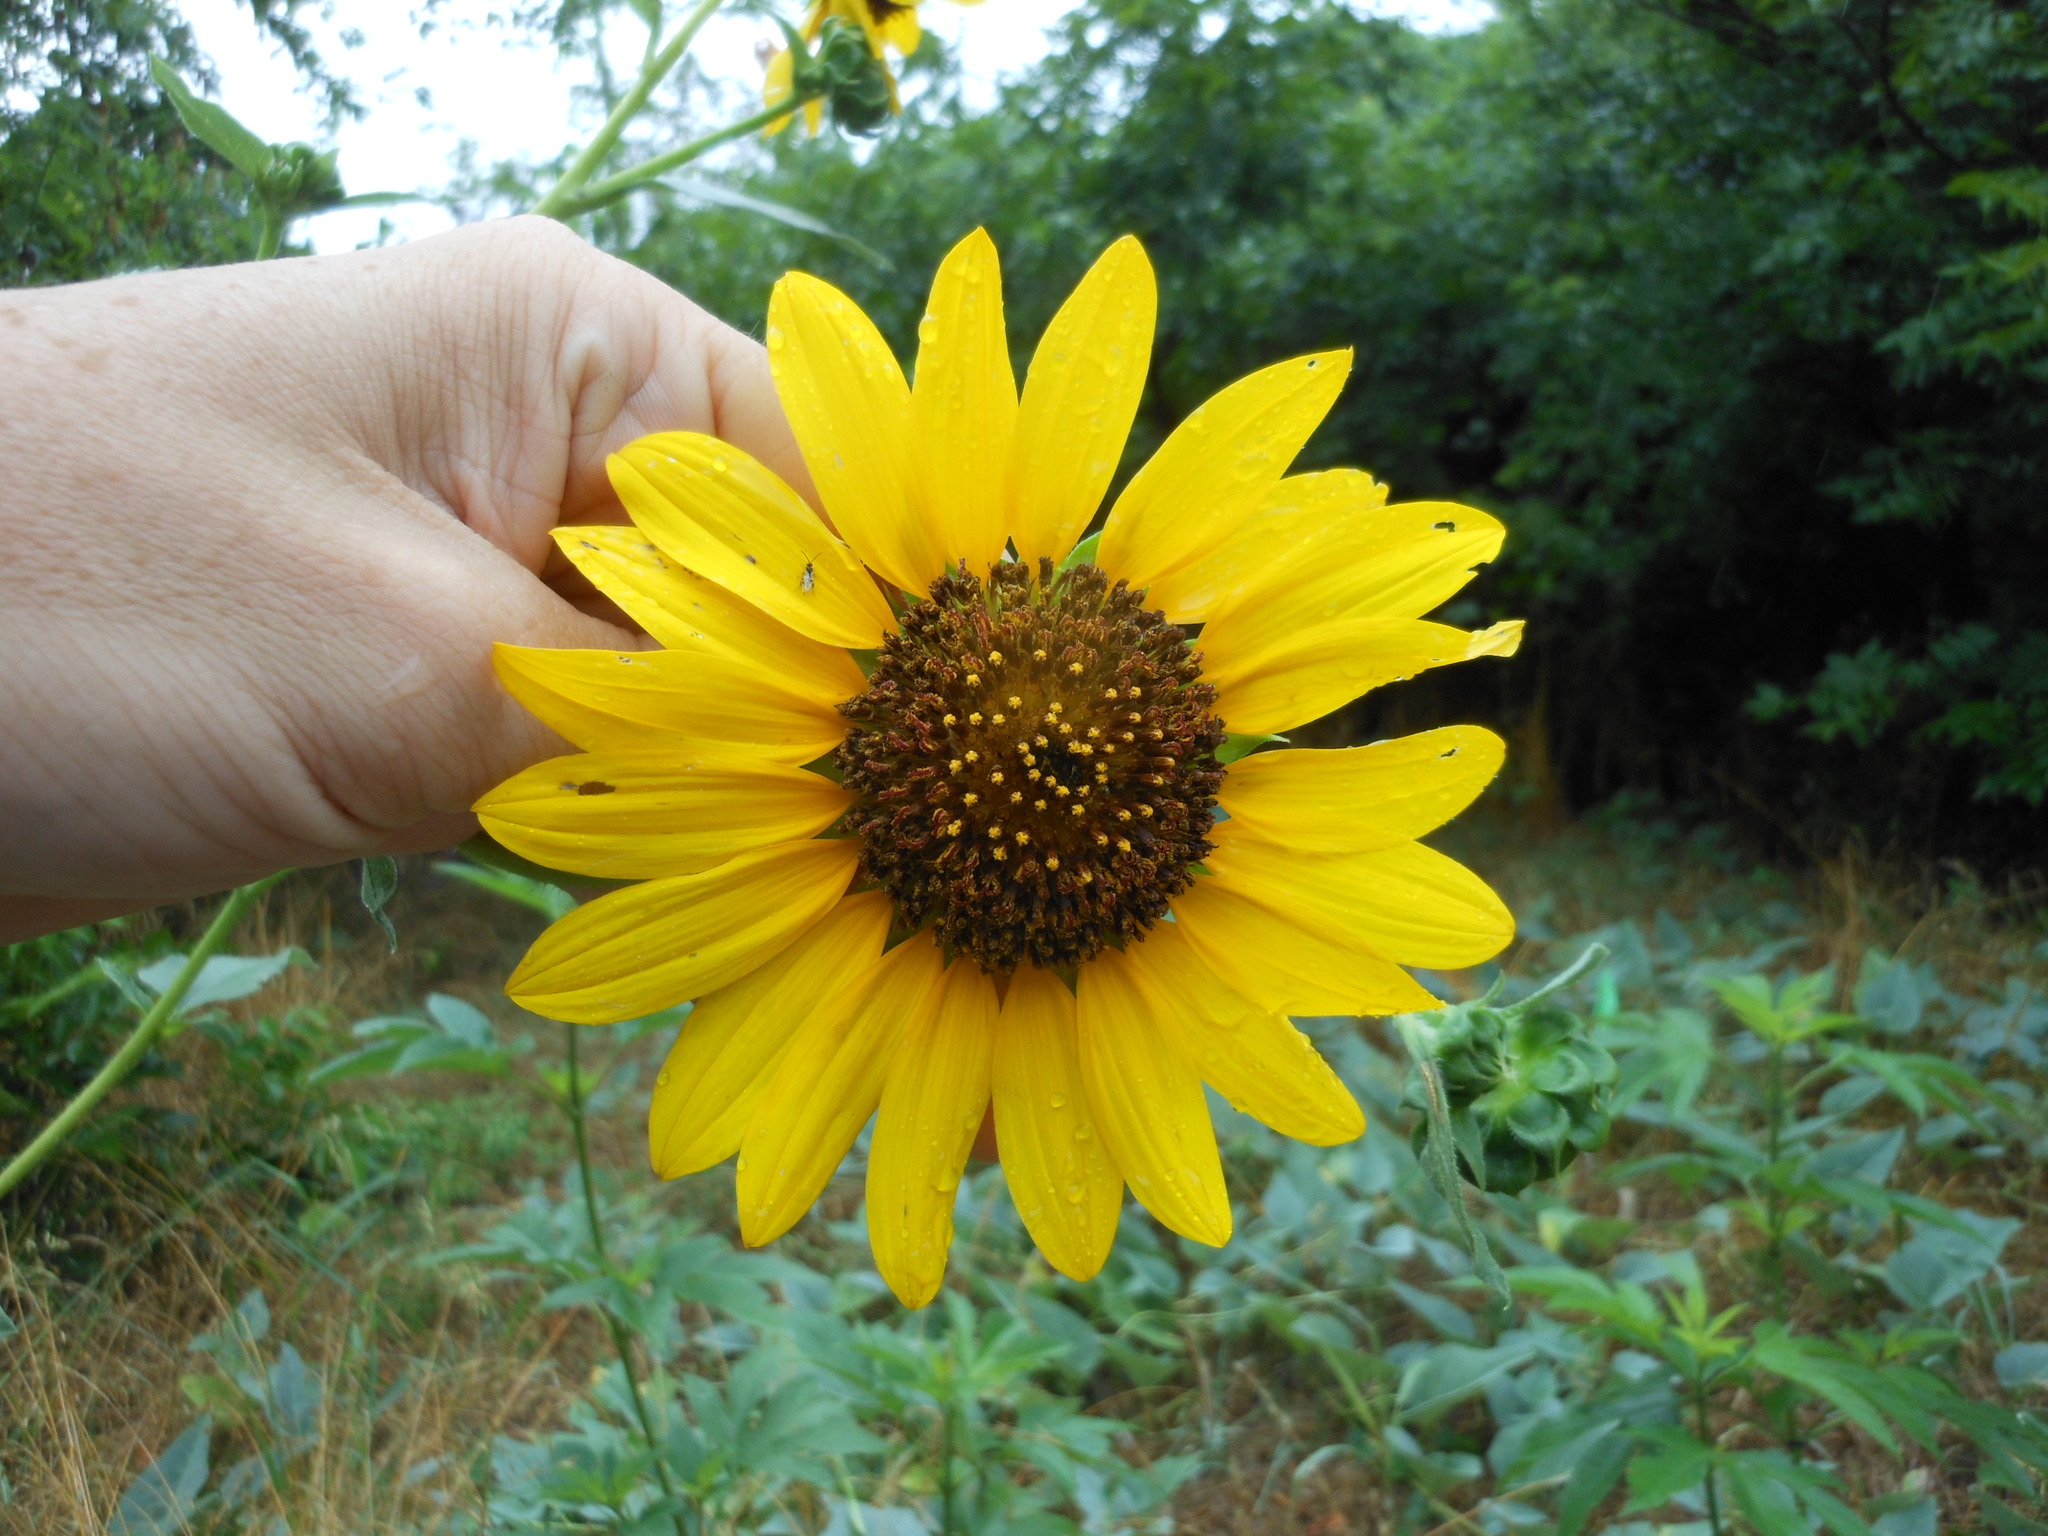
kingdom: Plantae
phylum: Tracheophyta
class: Magnoliopsida
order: Asterales
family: Asteraceae
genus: Helianthus
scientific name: Helianthus annuus
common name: Sunflower
